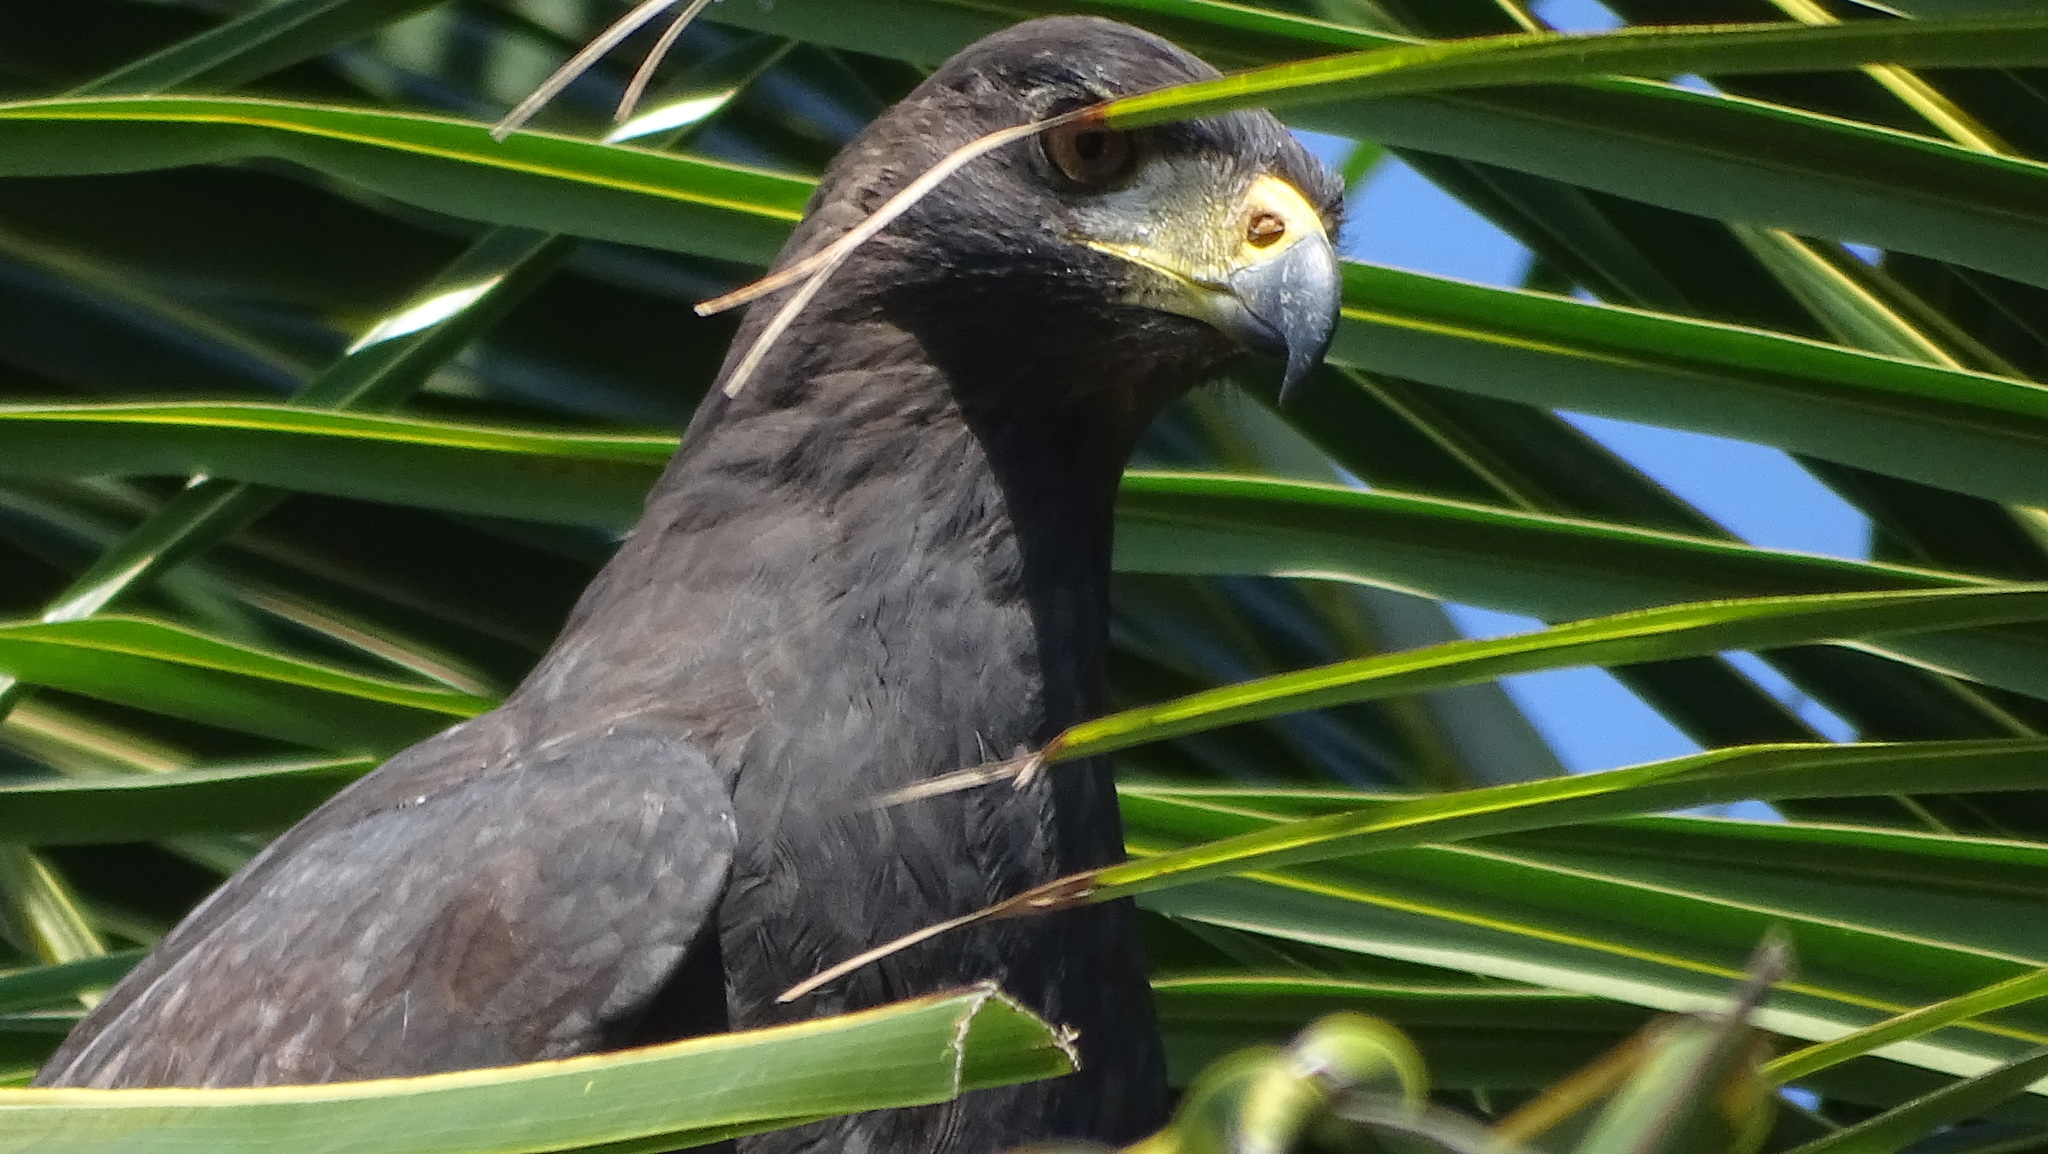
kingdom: Animalia
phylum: Chordata
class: Aves
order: Accipitriformes
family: Accipitridae
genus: Buteogallus
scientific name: Buteogallus urubitinga
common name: Great black hawk
